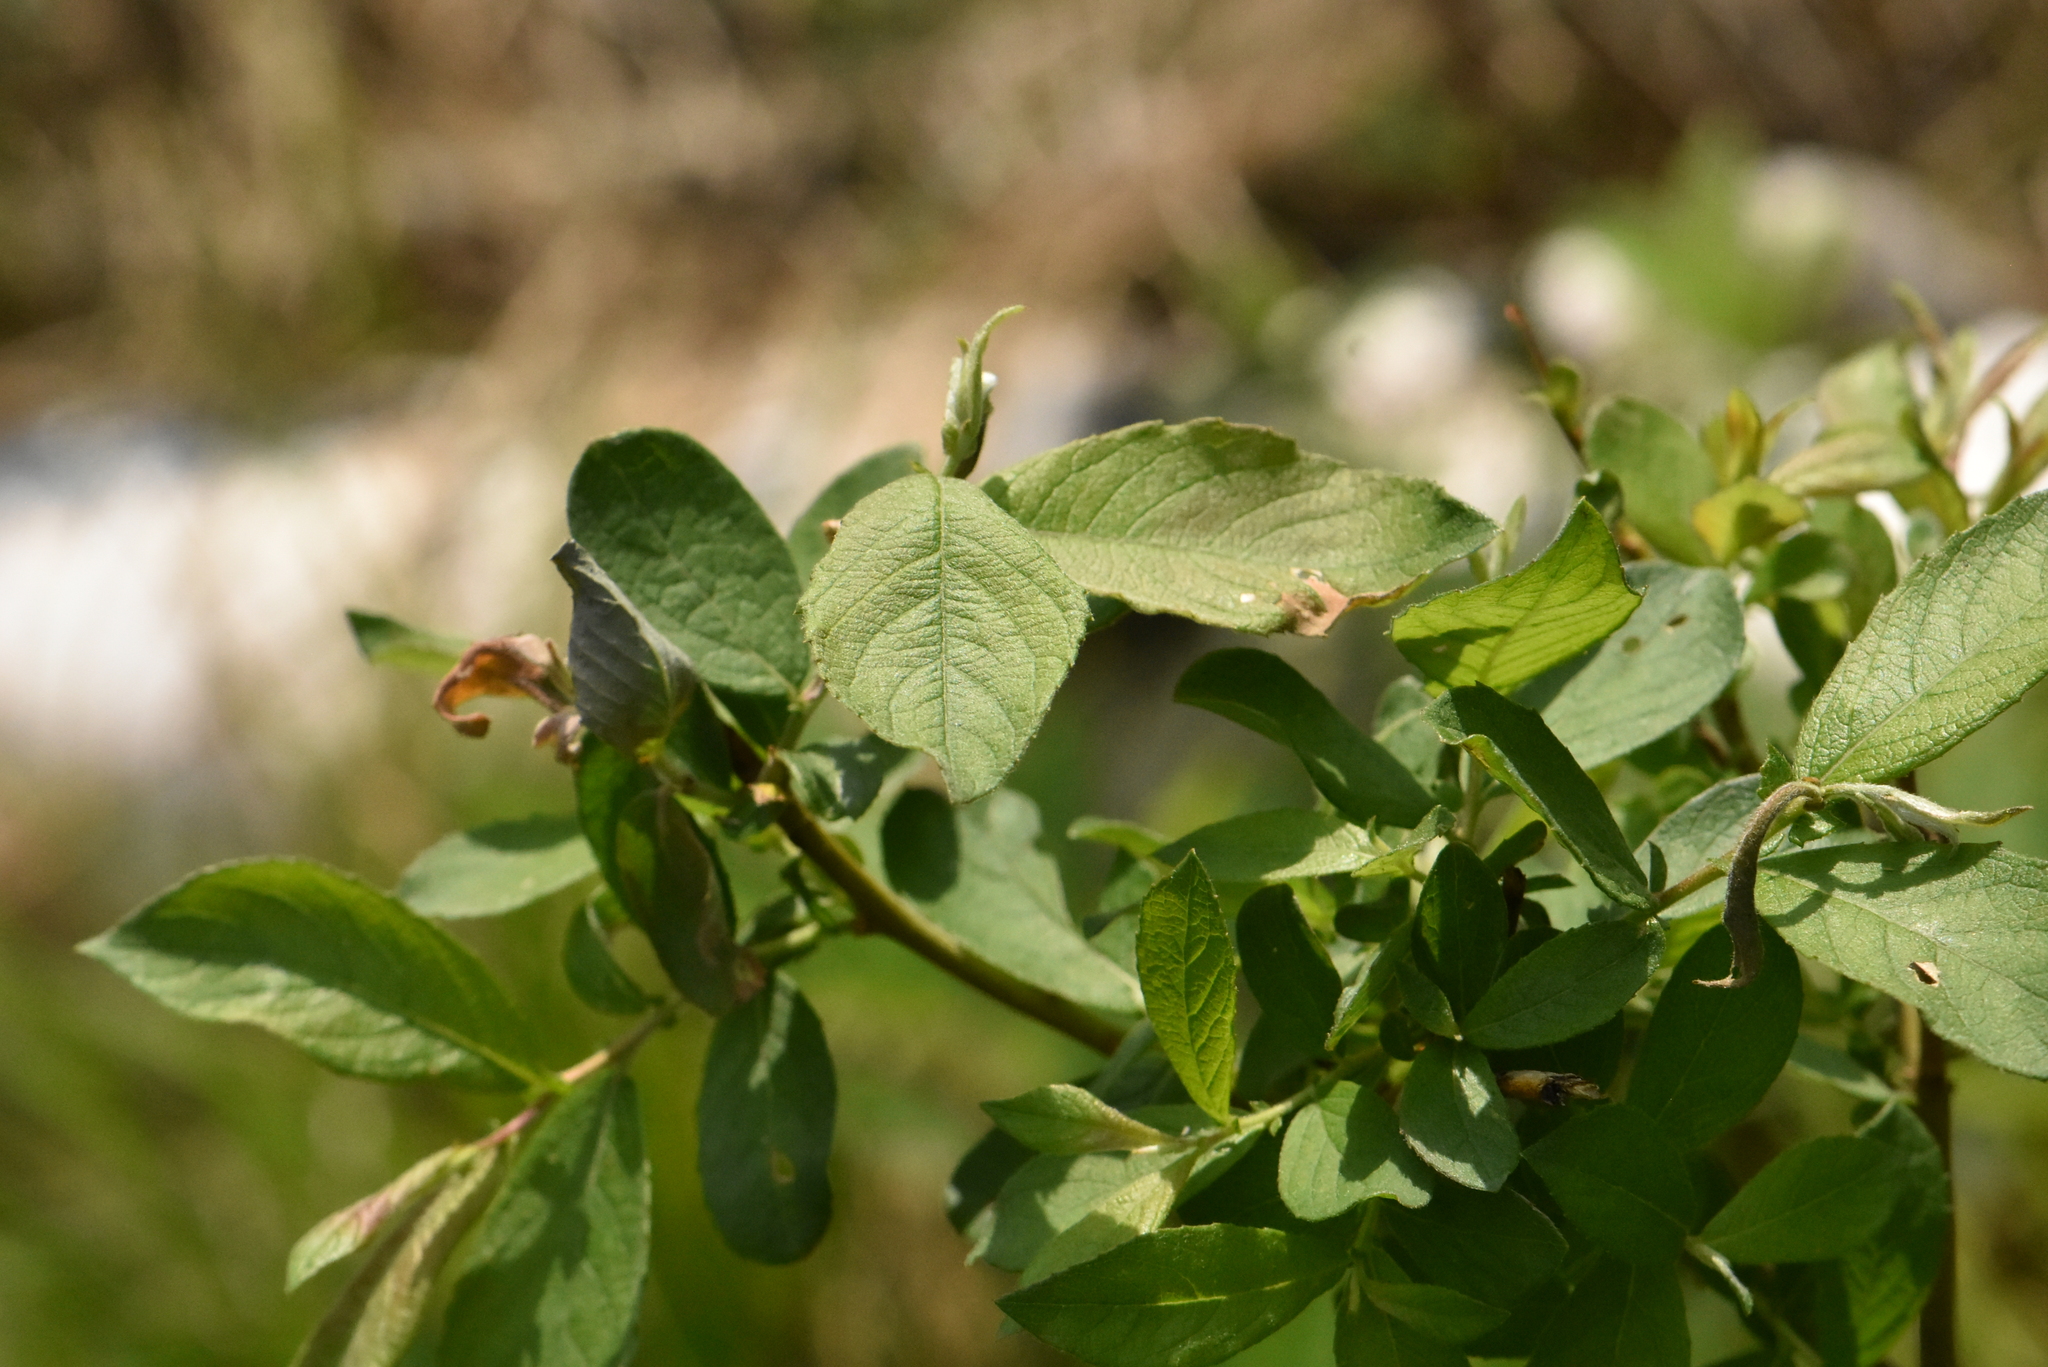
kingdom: Plantae
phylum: Tracheophyta
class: Magnoliopsida
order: Malpighiales
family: Salicaceae
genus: Salix
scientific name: Salix aurita
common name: Eared willow
